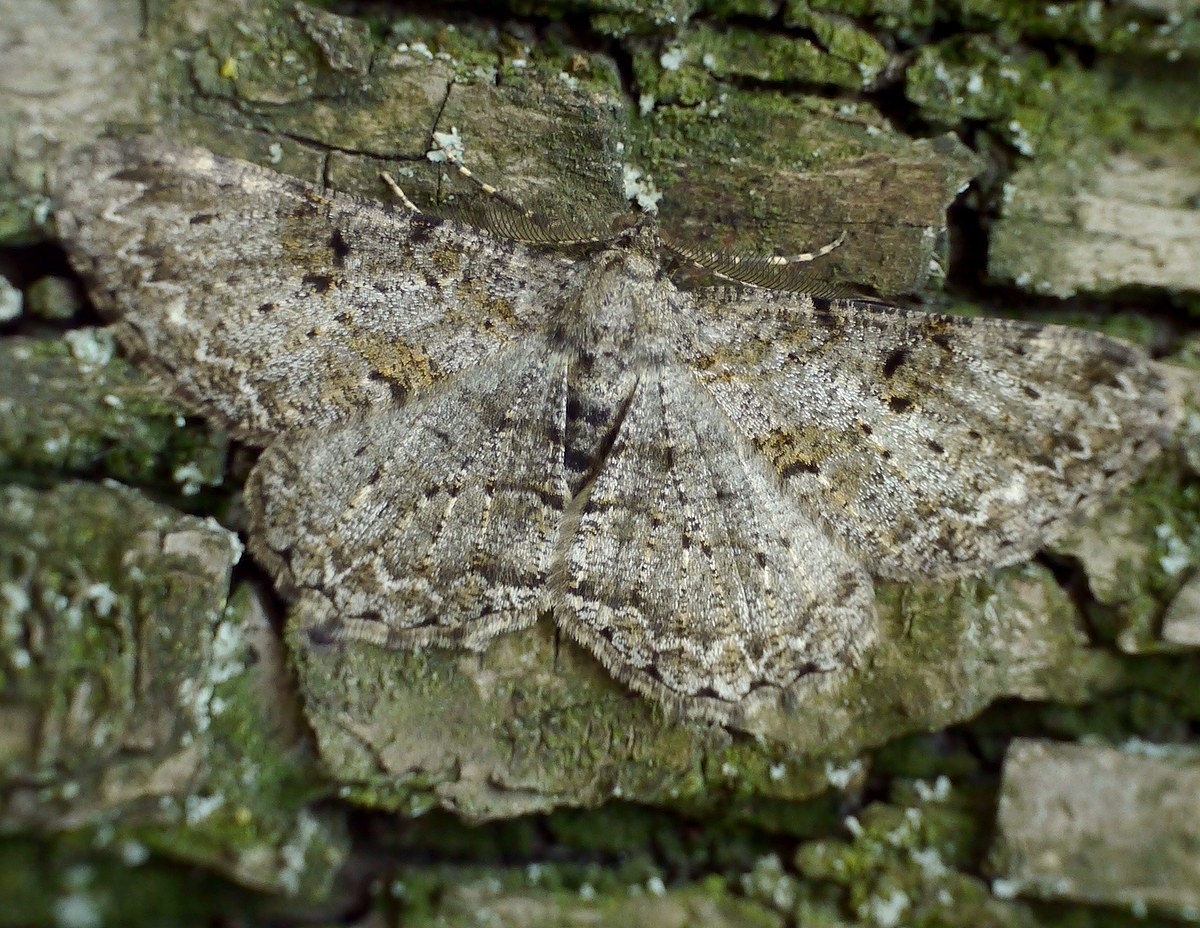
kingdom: Animalia
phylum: Arthropoda
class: Insecta
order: Lepidoptera
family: Geometridae
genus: Peribatodes
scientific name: Peribatodes rhomboidaria
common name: Willow beauty
